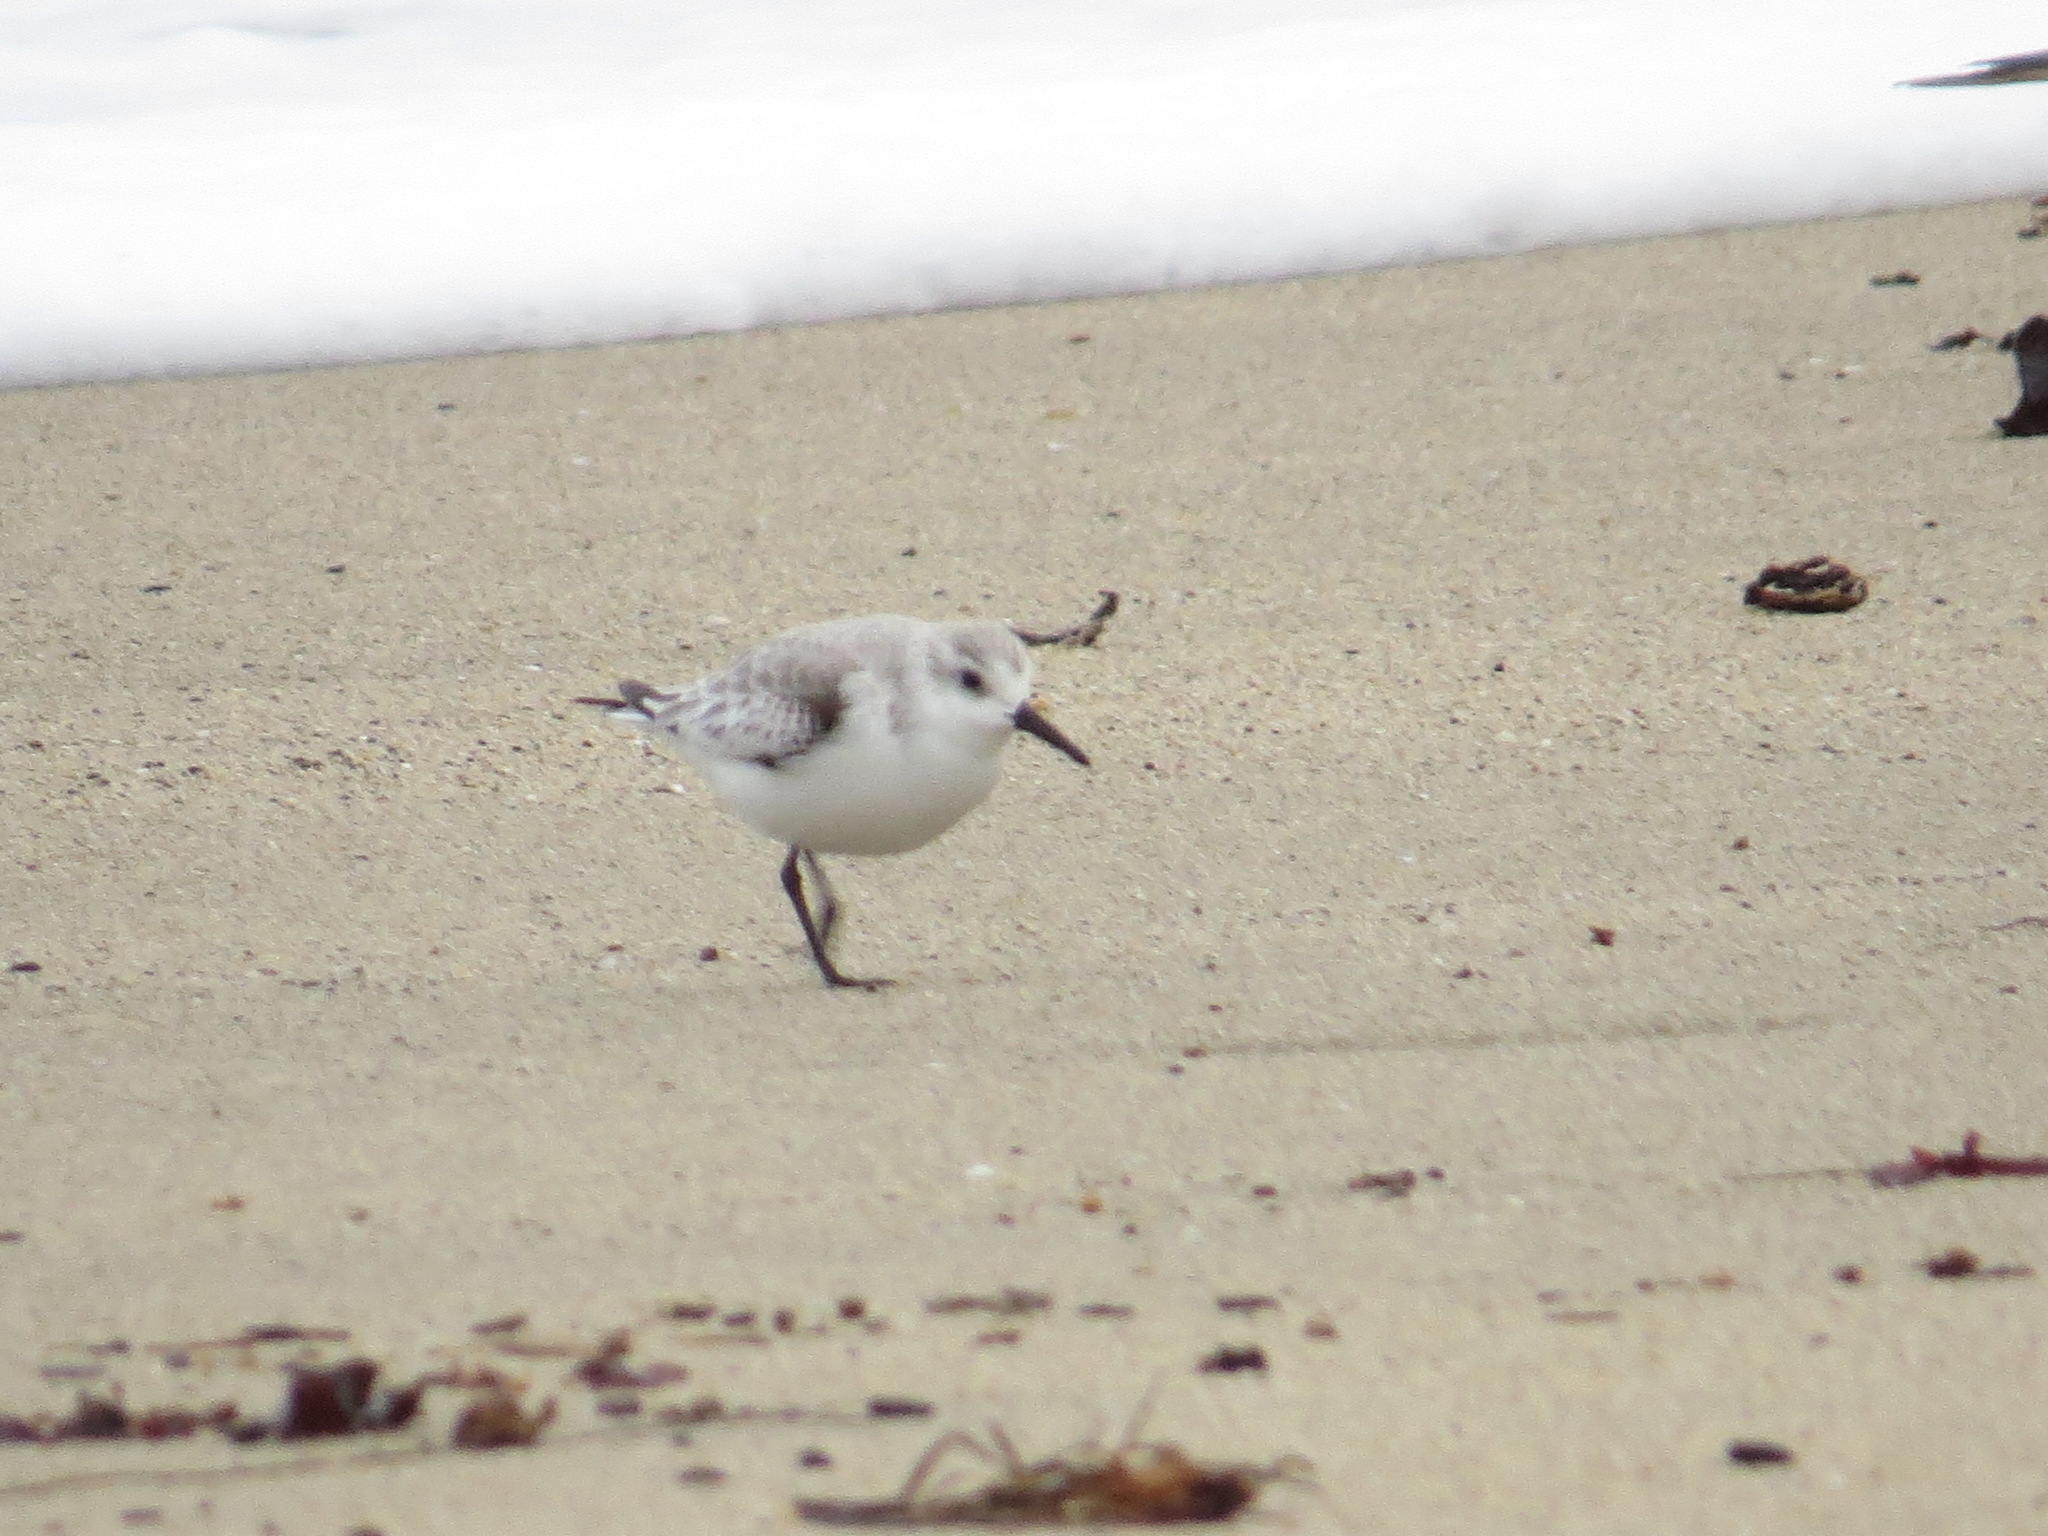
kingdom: Animalia
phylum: Chordata
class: Aves
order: Charadriiformes
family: Scolopacidae
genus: Calidris
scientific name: Calidris alba
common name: Sanderling
